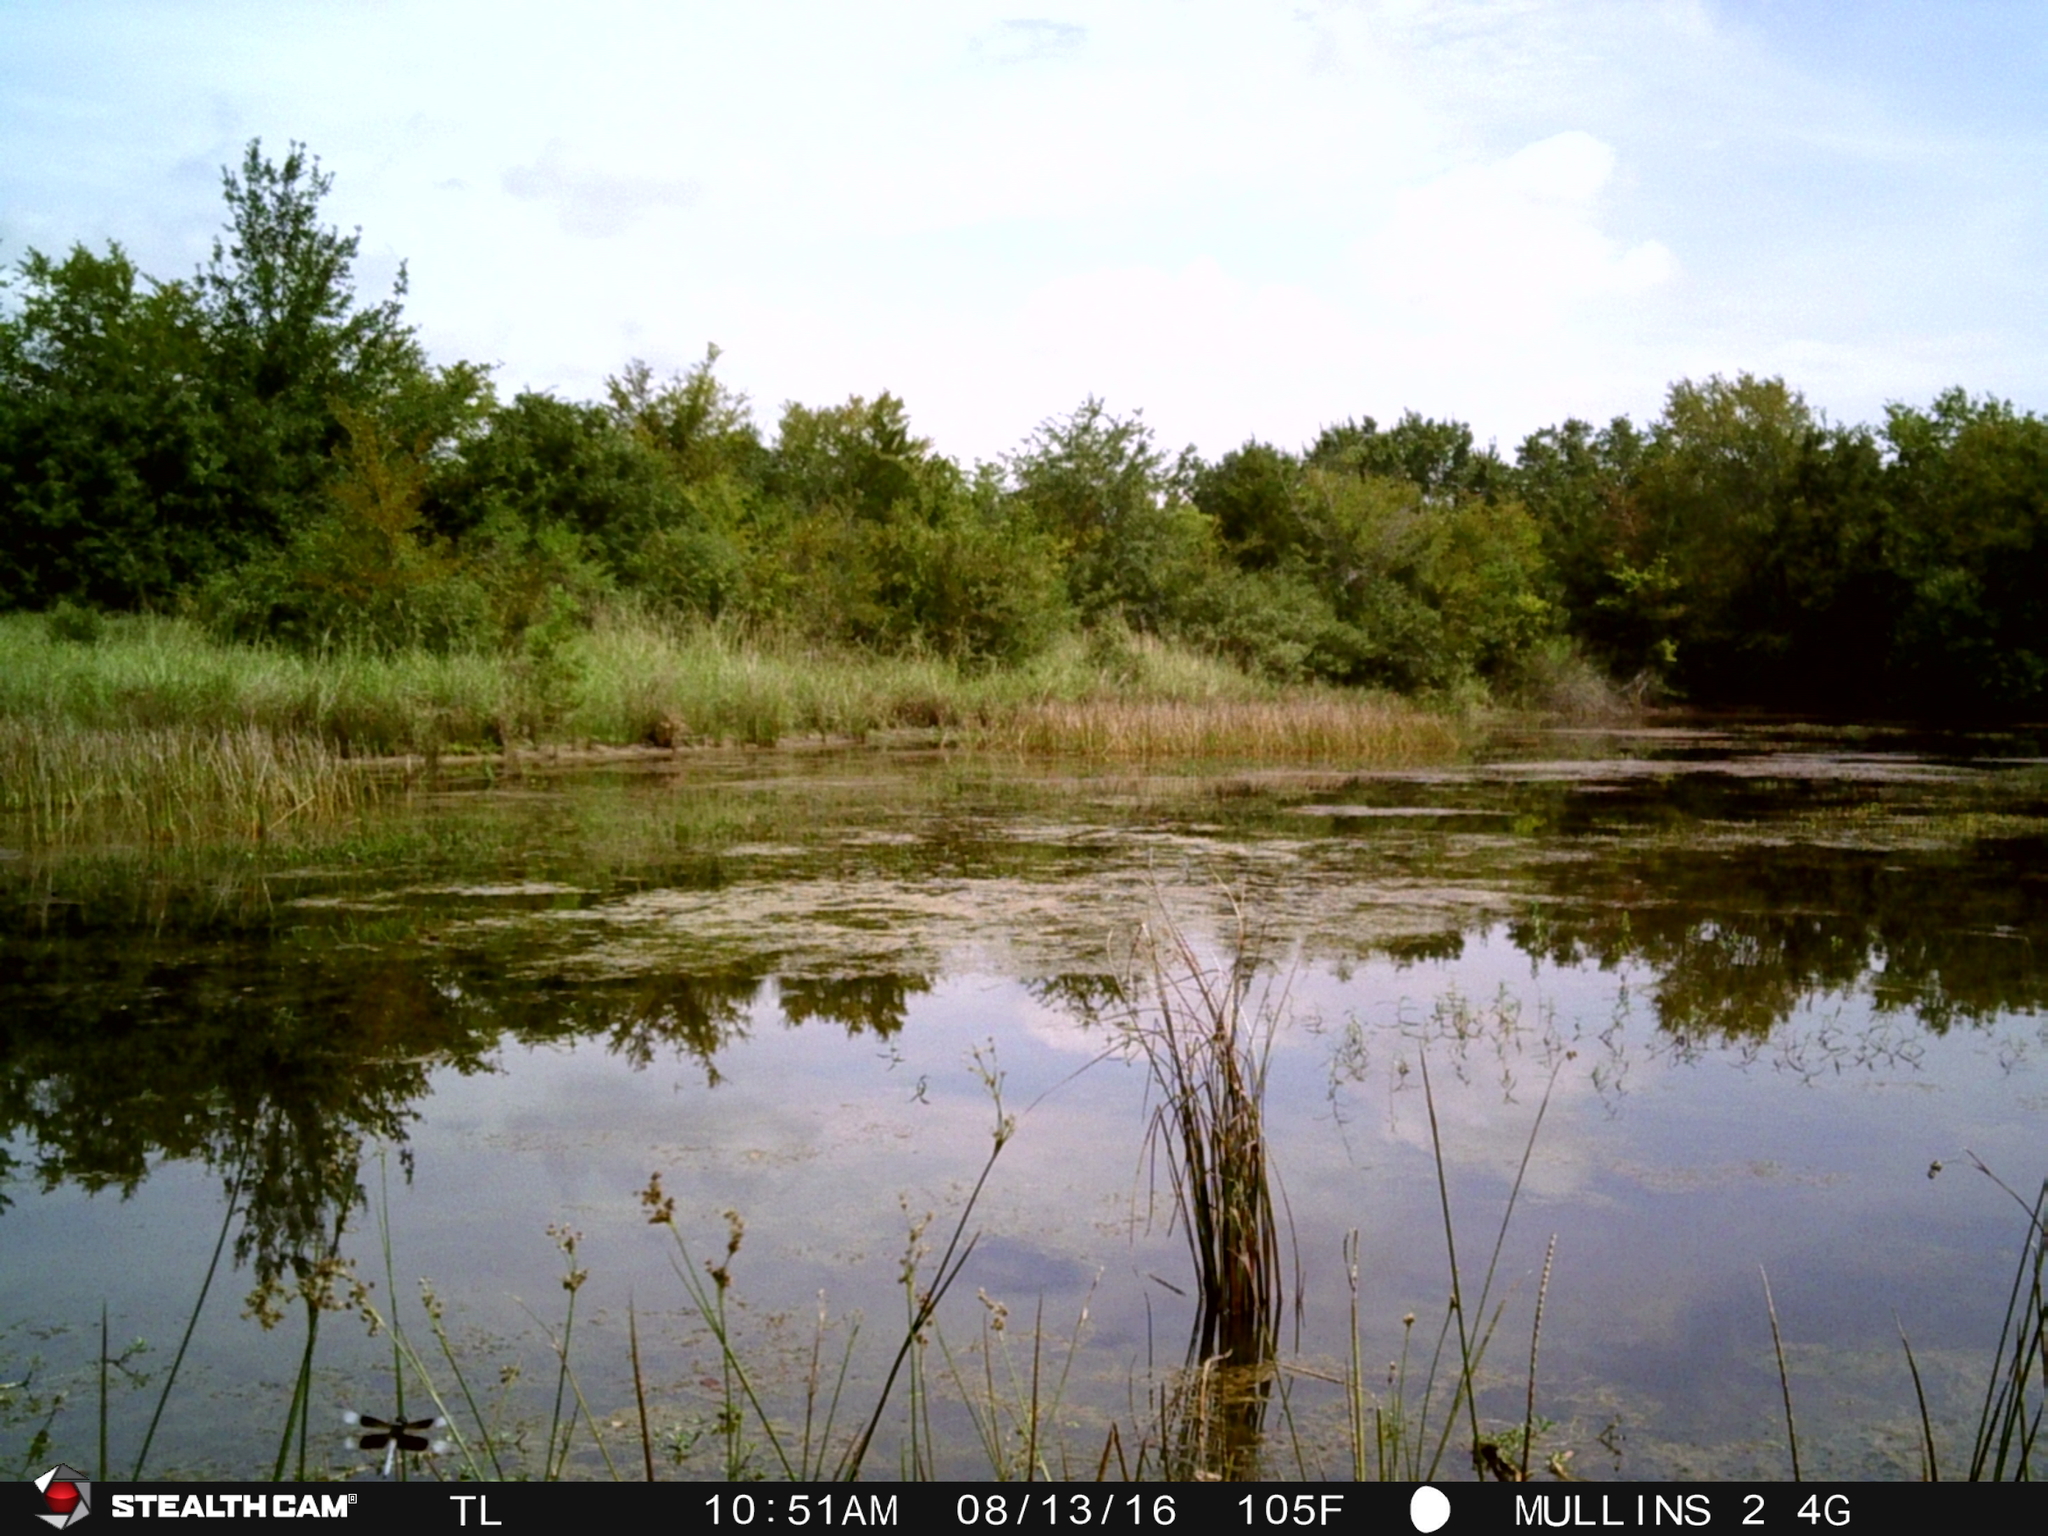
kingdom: Animalia
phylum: Arthropoda
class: Insecta
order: Odonata
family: Libellulidae
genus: Libellula
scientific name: Libellula luctuosa
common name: Widow skimmer
